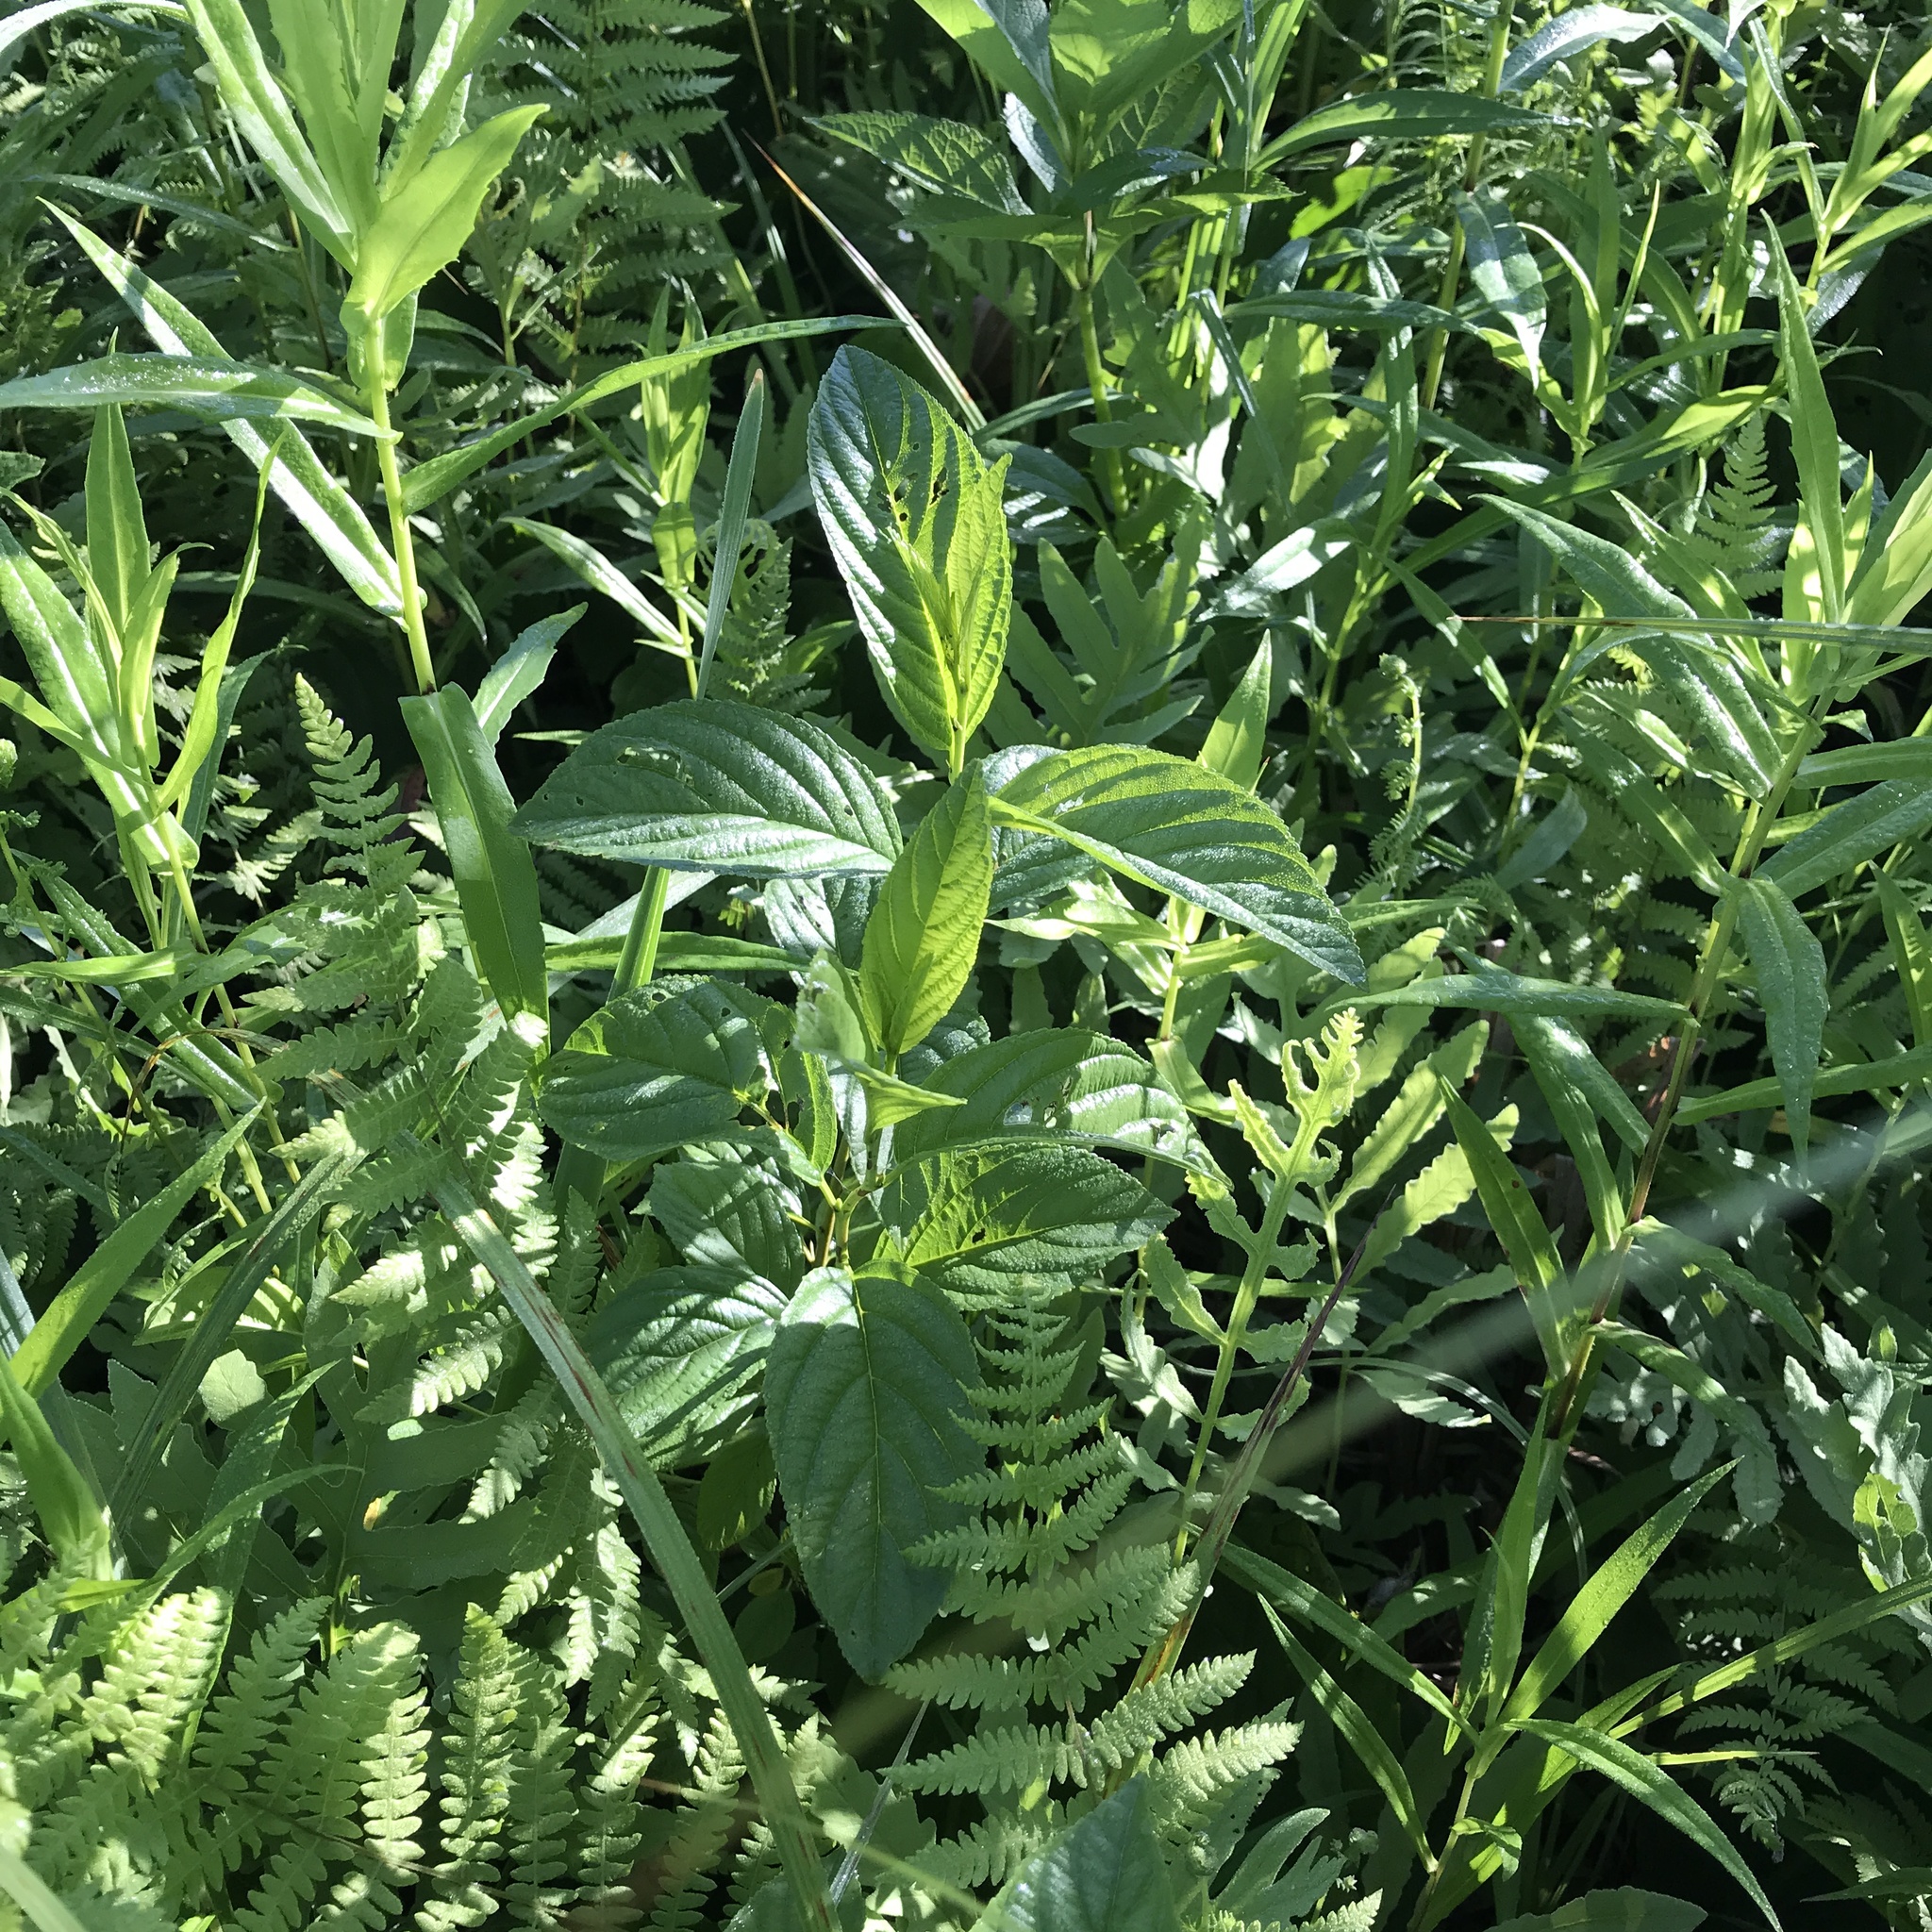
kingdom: Plantae
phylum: Tracheophyta
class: Magnoliopsida
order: Rosales
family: Rhamnaceae
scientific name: Rhamnaceae
